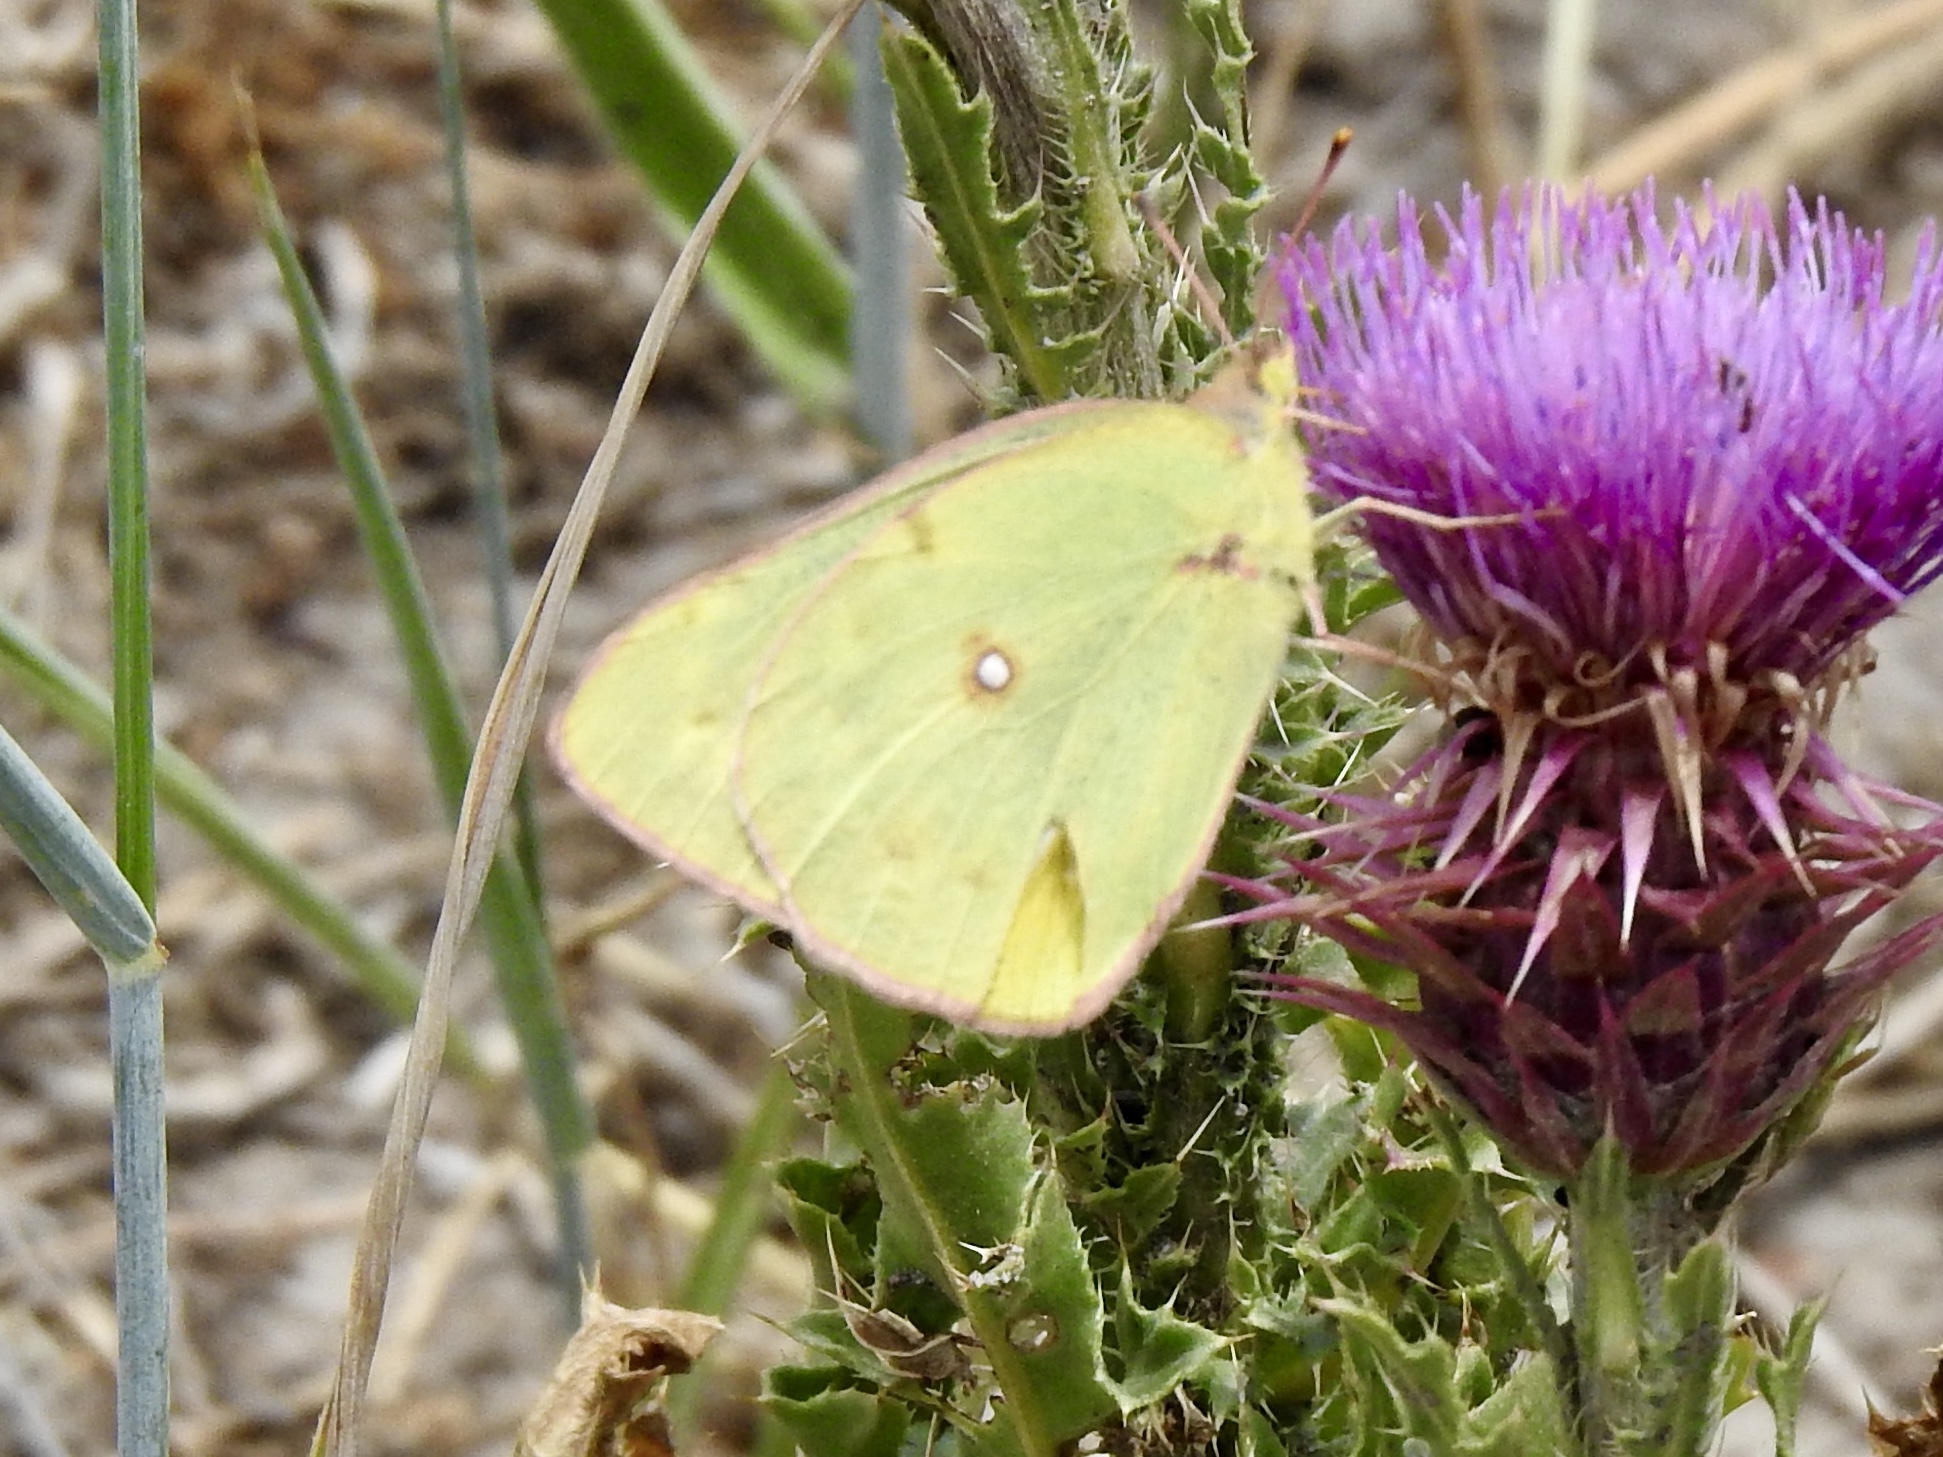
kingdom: Animalia
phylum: Arthropoda
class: Insecta
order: Lepidoptera
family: Pieridae
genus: Colias
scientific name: Colias eurytheme
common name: Alfalfa butterfly
